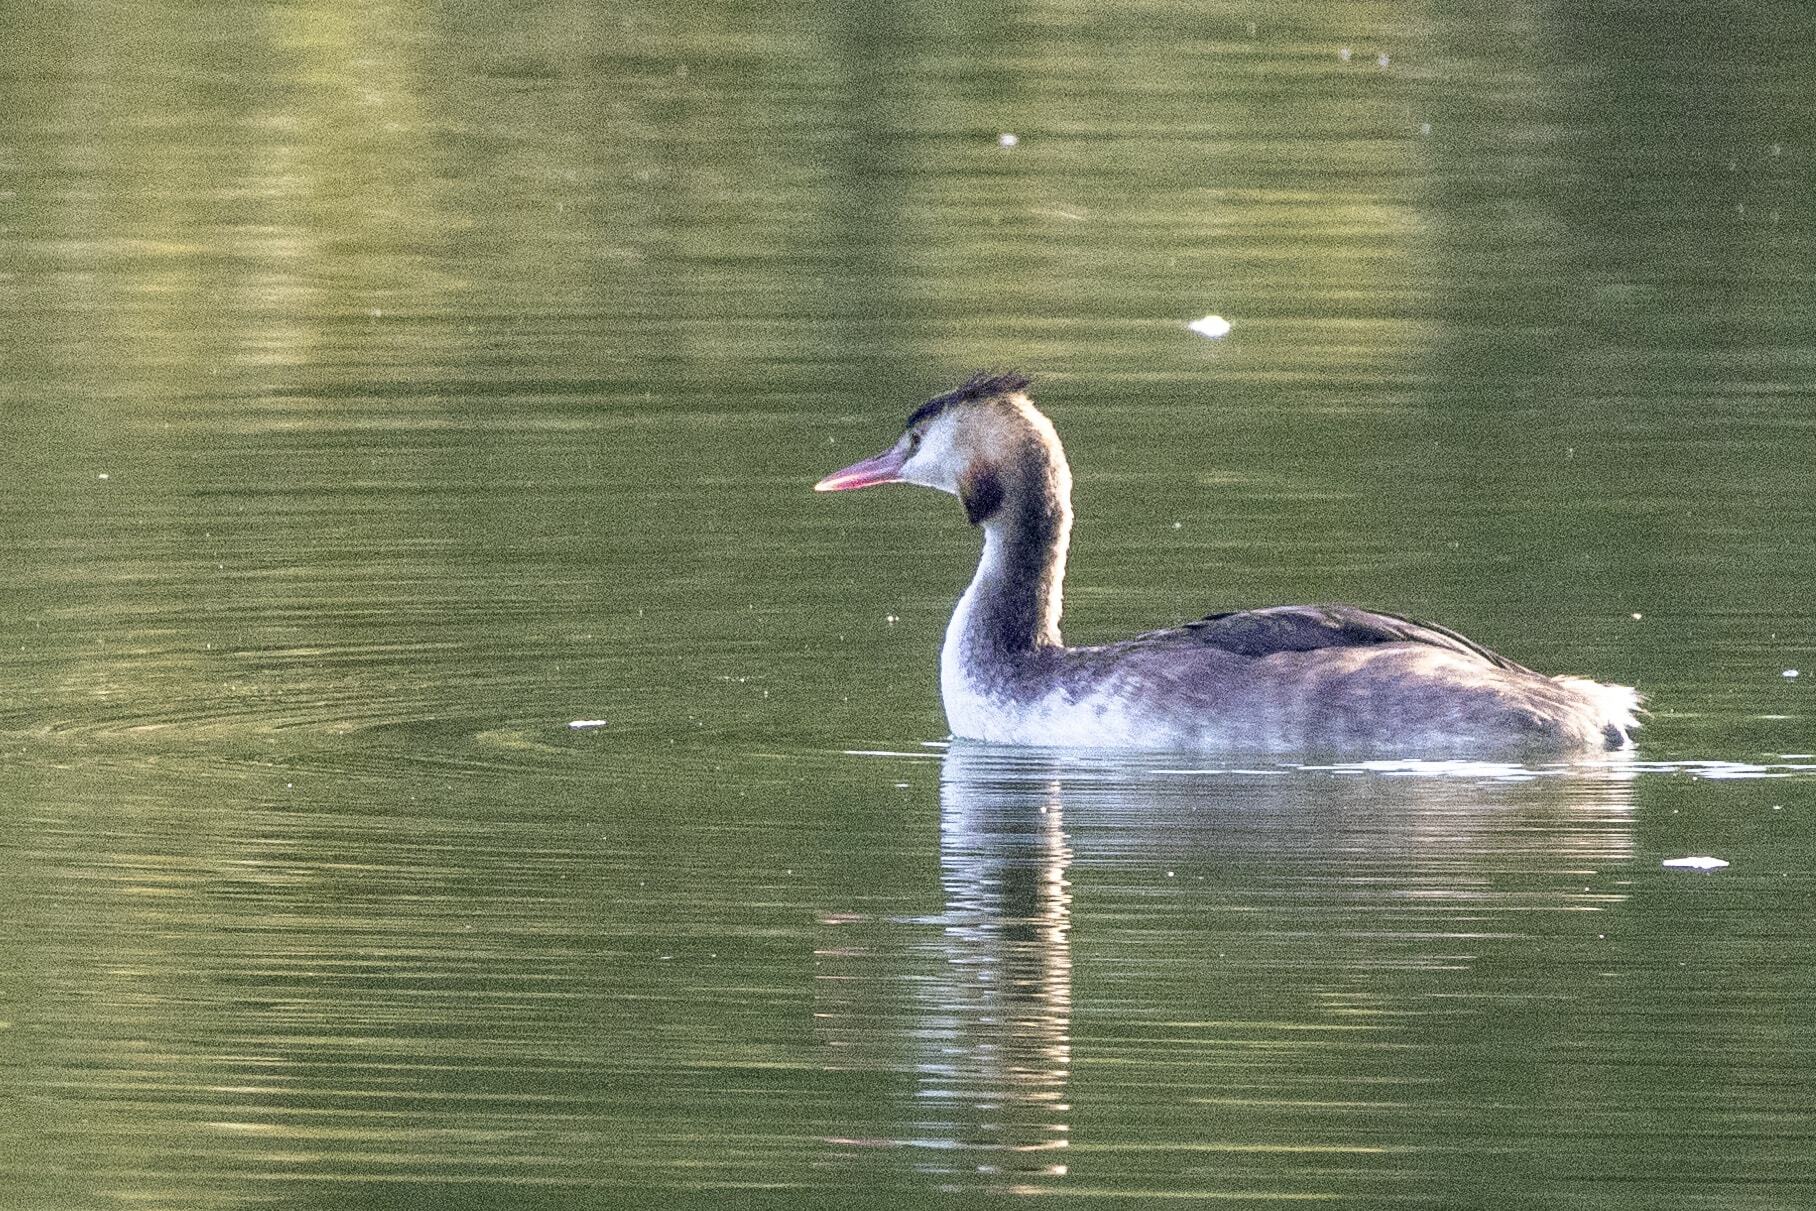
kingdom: Animalia
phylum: Chordata
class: Aves
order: Podicipediformes
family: Podicipedidae
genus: Podiceps
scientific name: Podiceps cristatus
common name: Great crested grebe
